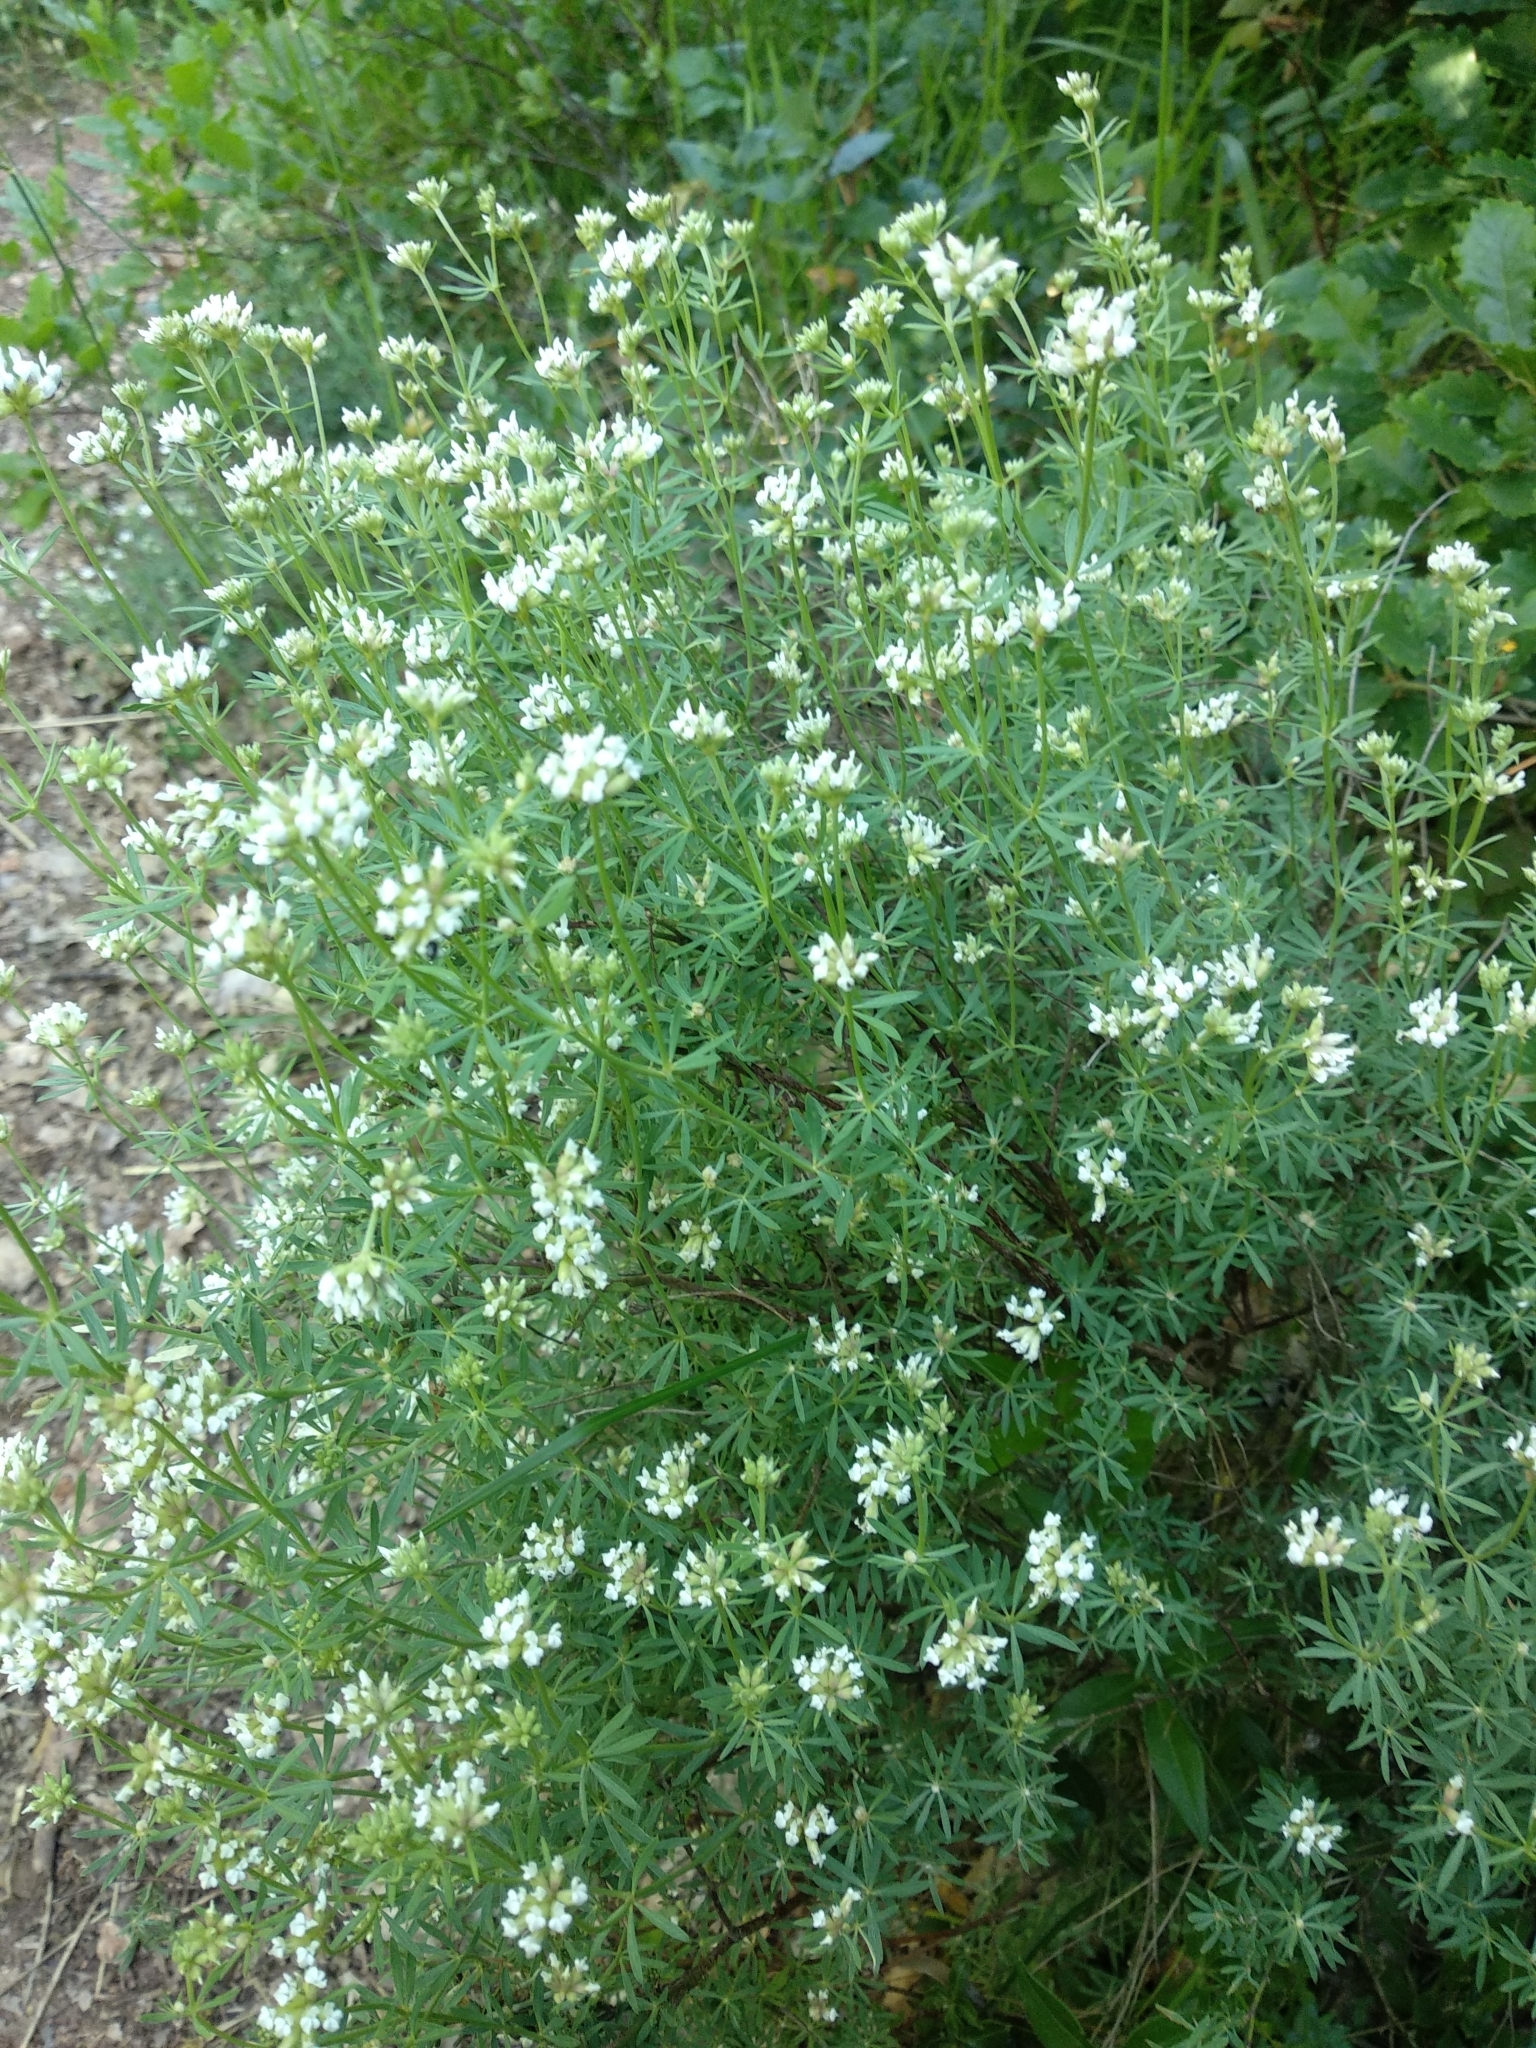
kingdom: Plantae
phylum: Tracheophyta
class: Magnoliopsida
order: Fabales
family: Fabaceae
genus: Lotus
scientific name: Lotus dorycnium
